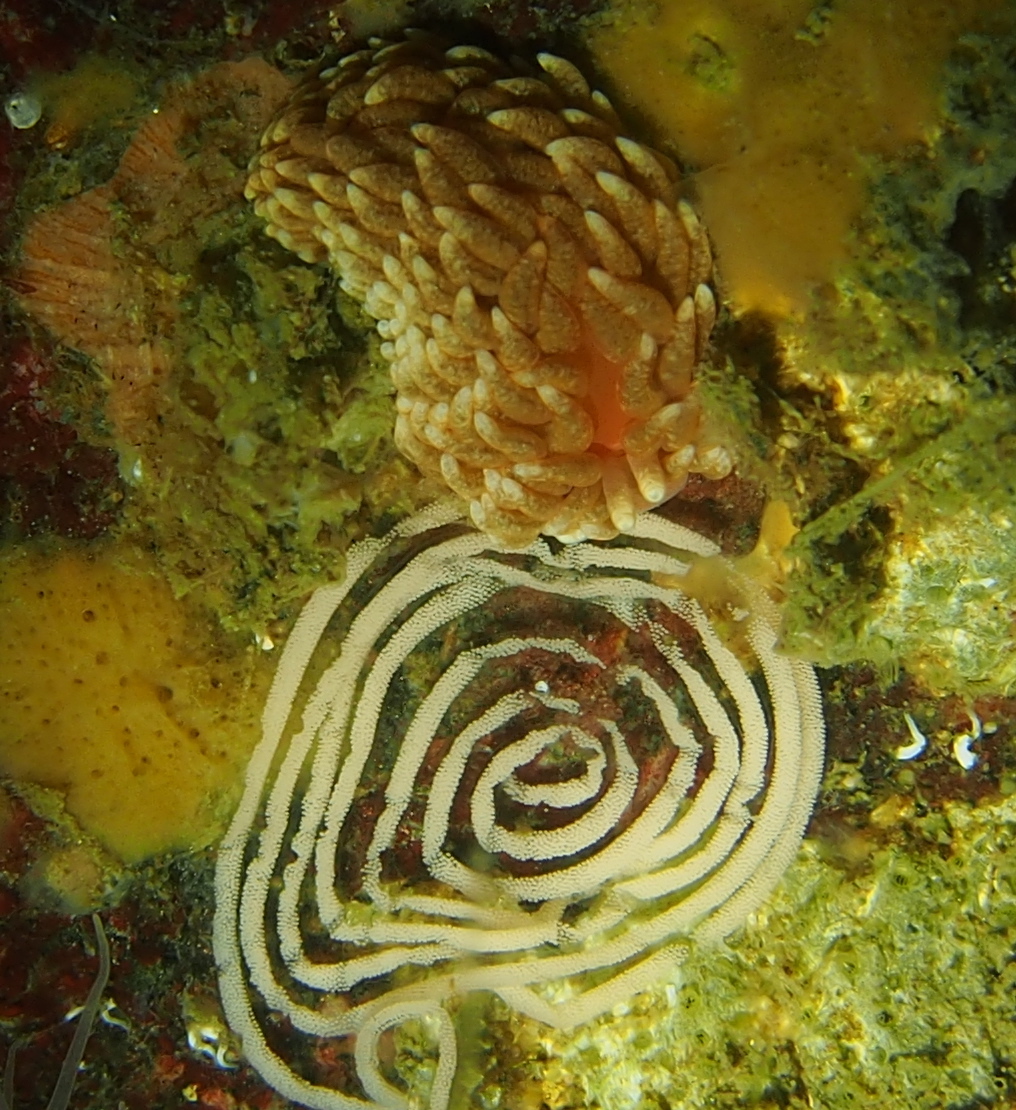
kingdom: Animalia
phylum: Mollusca
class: Gastropoda
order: Nudibranchia
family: Aeolidiidae
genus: Aeolidiella
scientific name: Aeolidiella glauca
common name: Orange-brown aeolid
